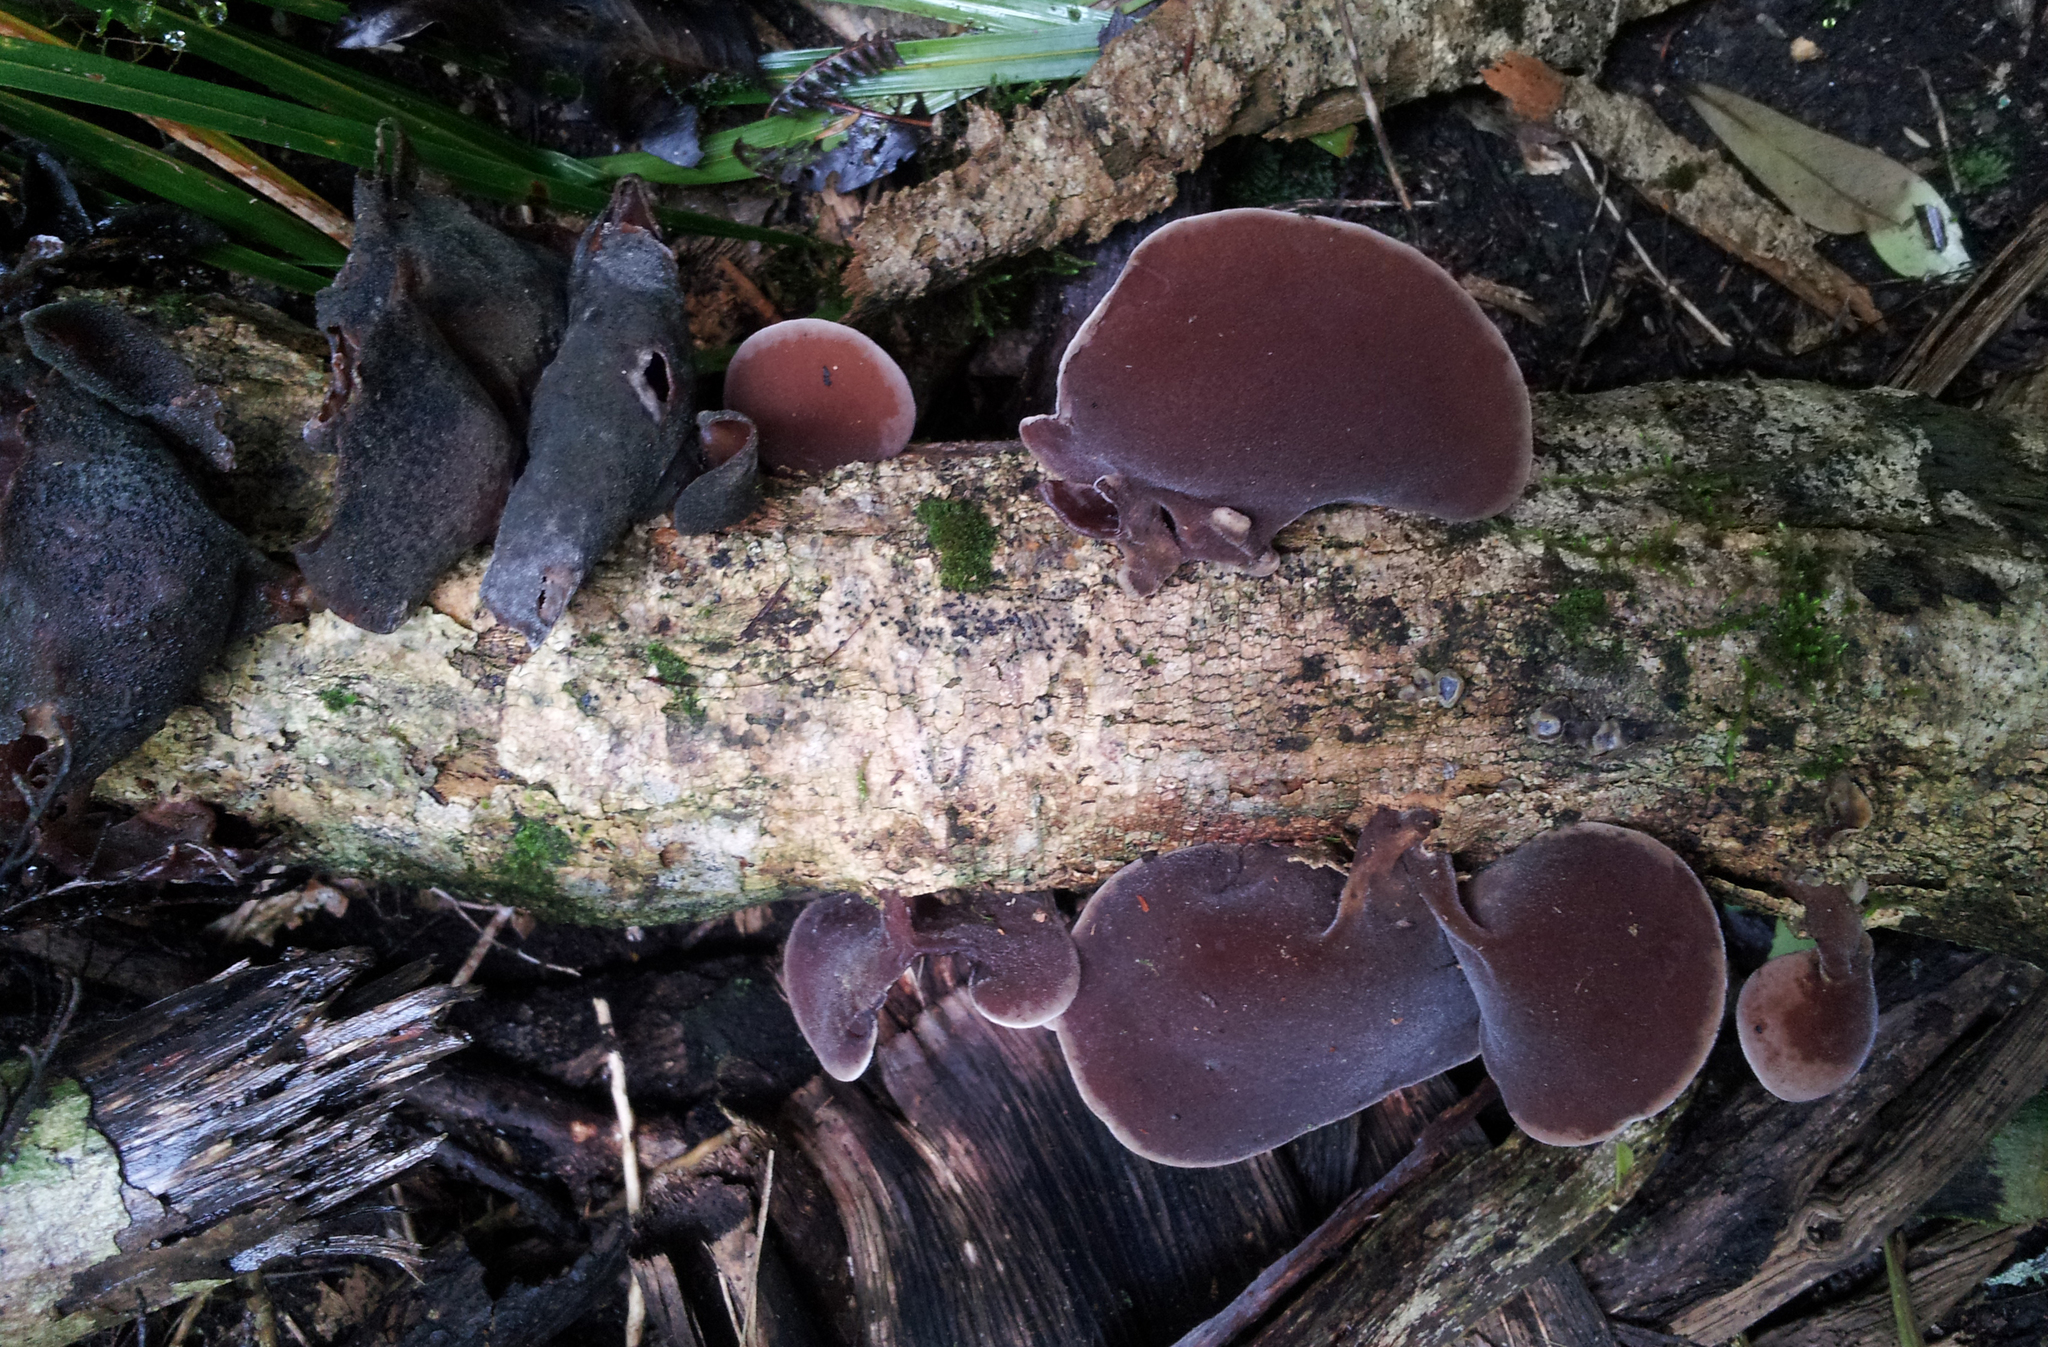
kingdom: Fungi
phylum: Basidiomycota
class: Agaricomycetes
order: Auriculariales
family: Auriculariaceae
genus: Auricularia
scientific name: Auricularia cornea
